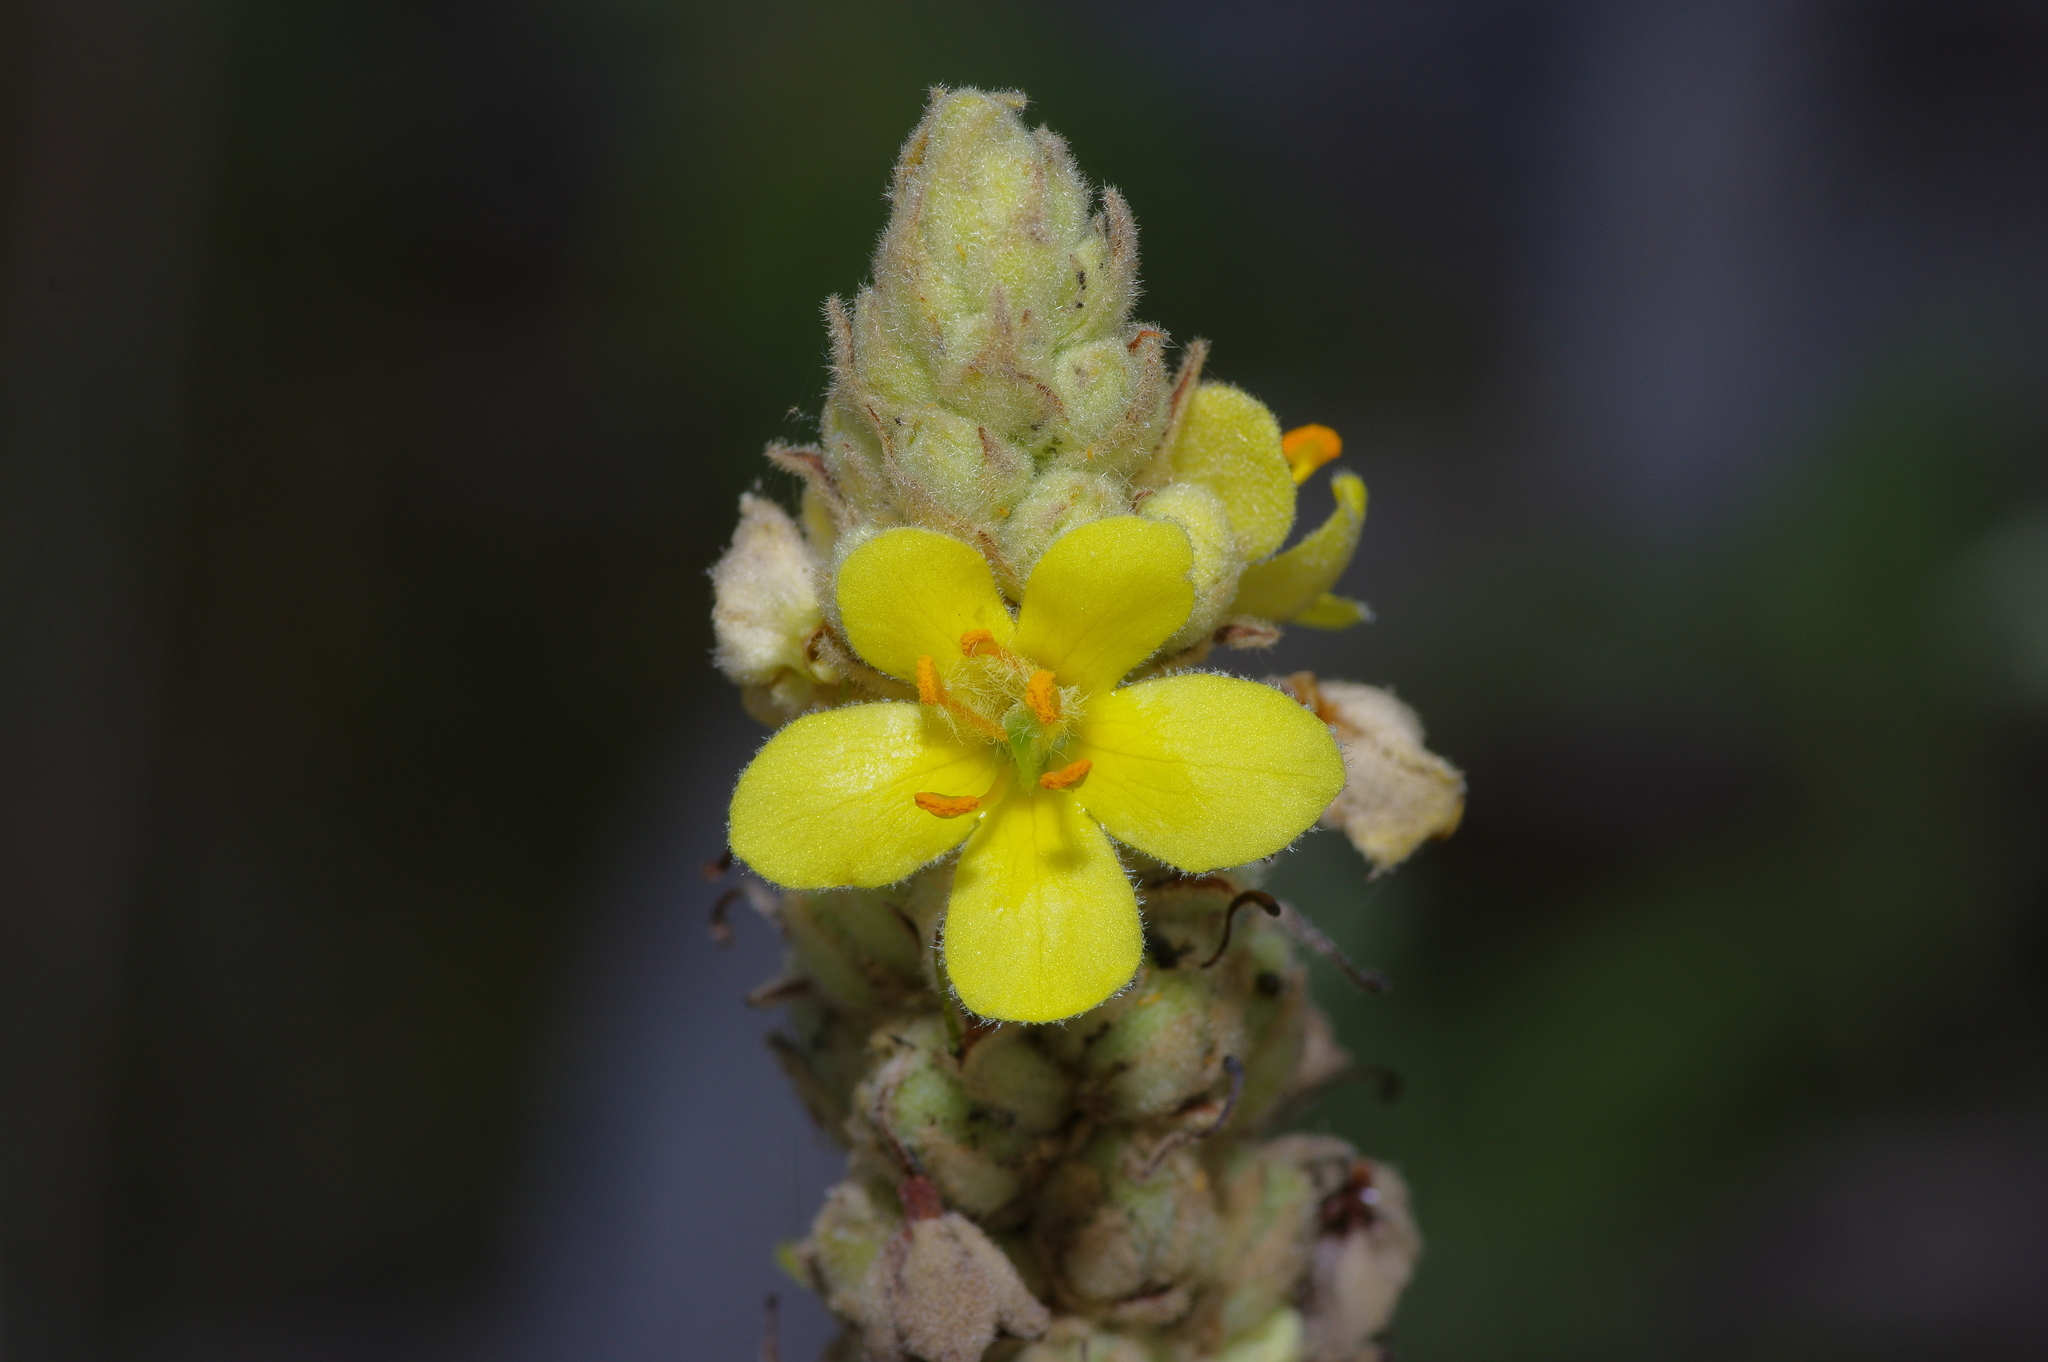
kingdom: Plantae
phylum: Tracheophyta
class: Magnoliopsida
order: Lamiales
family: Scrophulariaceae
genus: Verbascum
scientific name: Verbascum thapsus
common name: Common mullein
